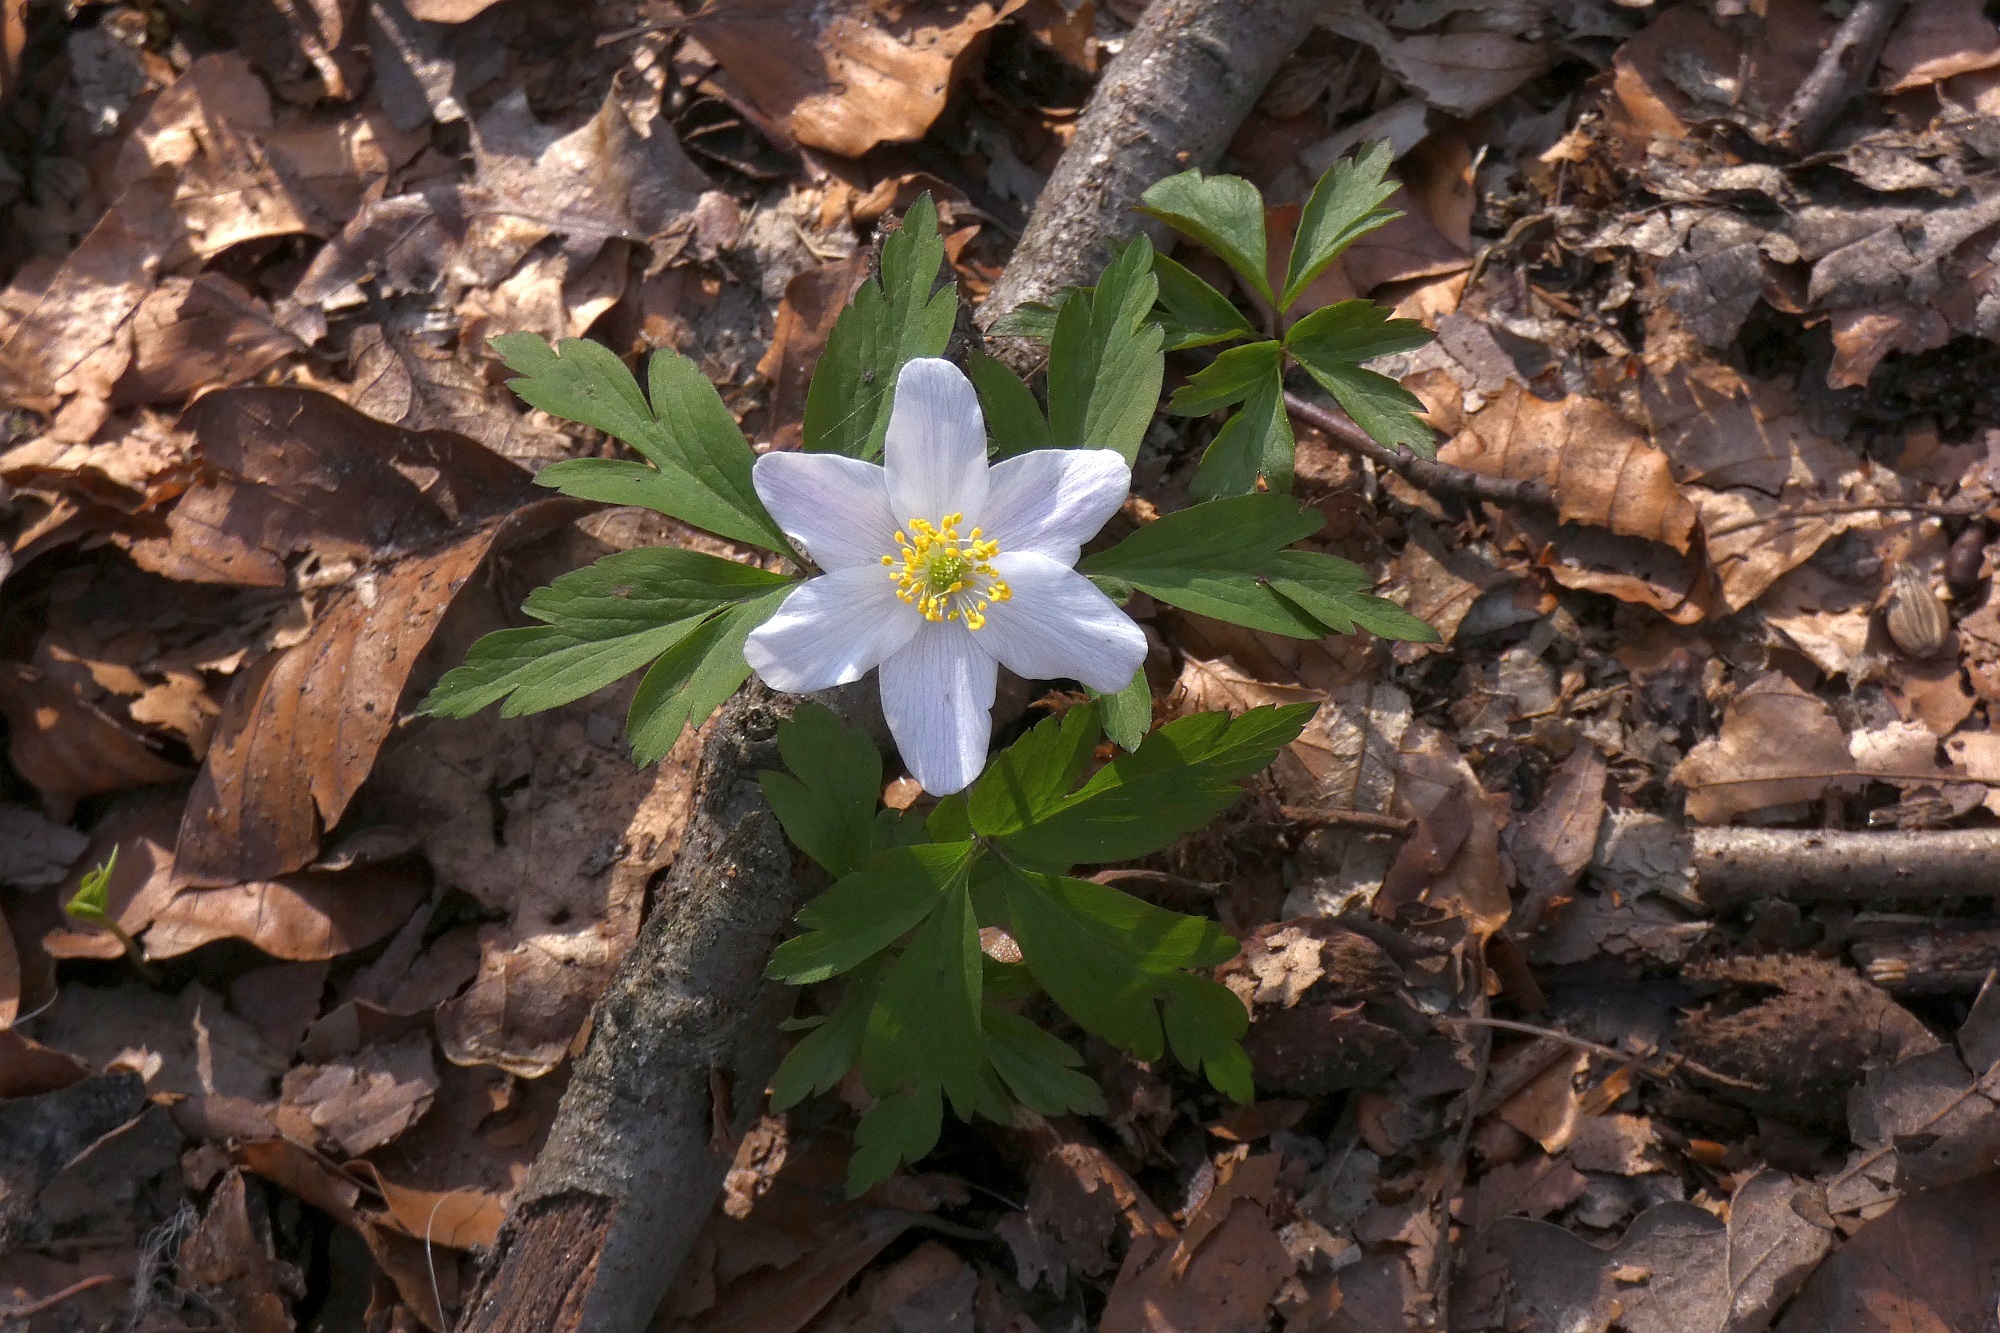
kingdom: Plantae
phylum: Tracheophyta
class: Magnoliopsida
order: Ranunculales
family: Ranunculaceae
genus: Anemone
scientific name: Anemone nemorosa
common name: Wood anemone
